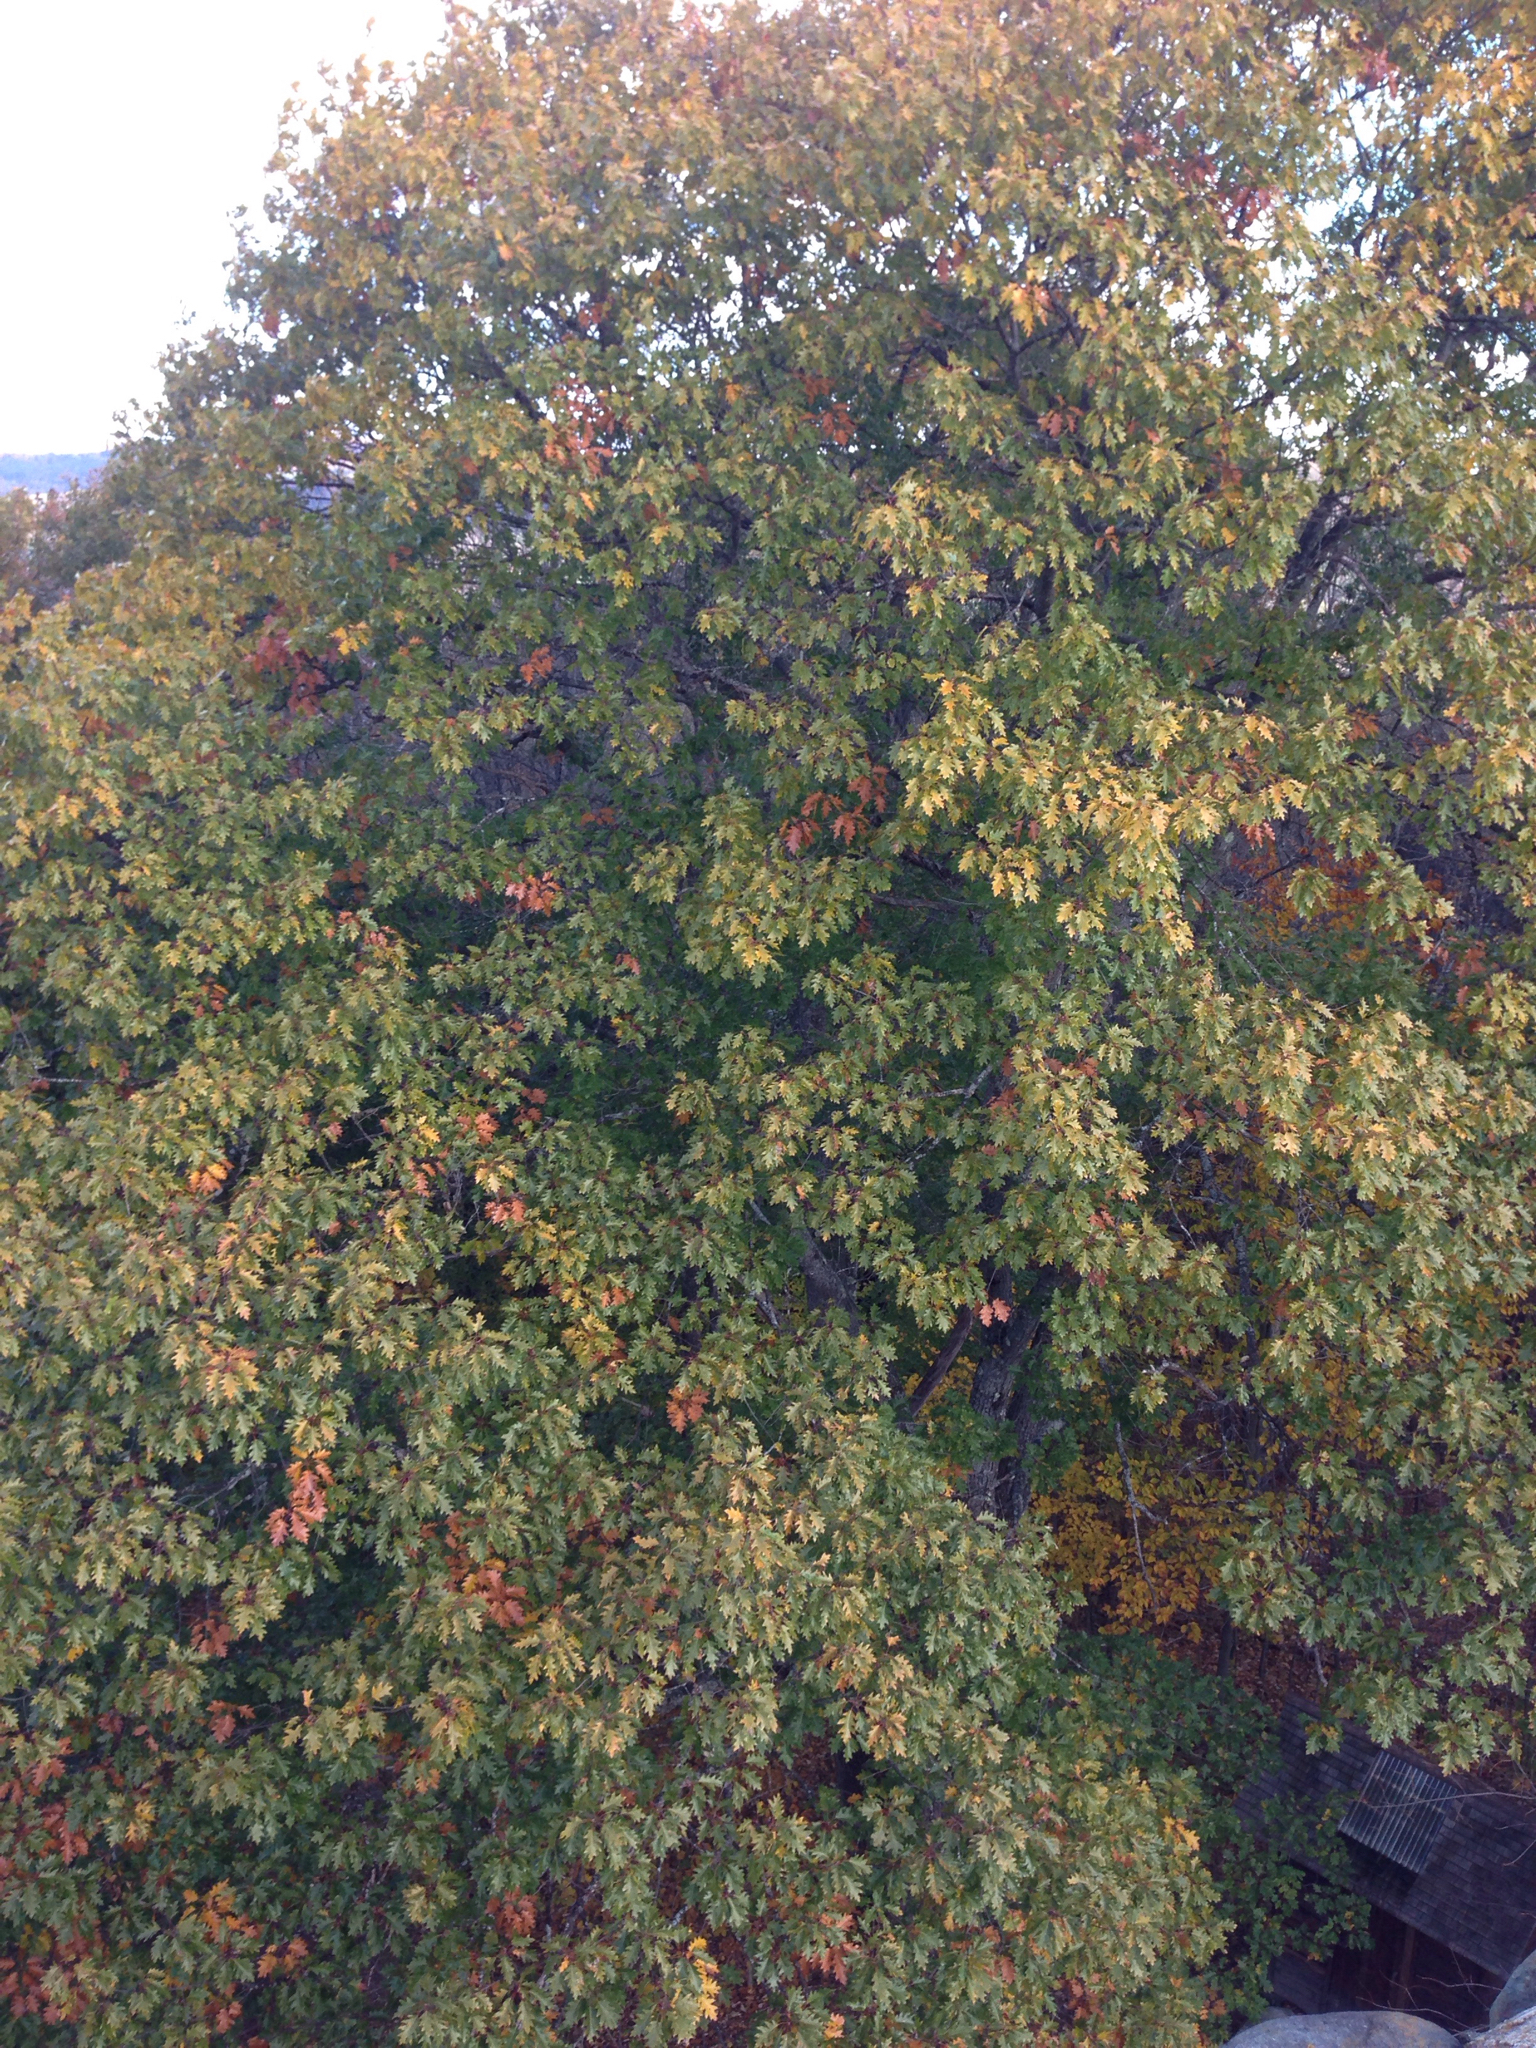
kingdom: Plantae
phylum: Tracheophyta
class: Magnoliopsida
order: Fagales
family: Fagaceae
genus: Quercus
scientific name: Quercus rubra
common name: Red oak
